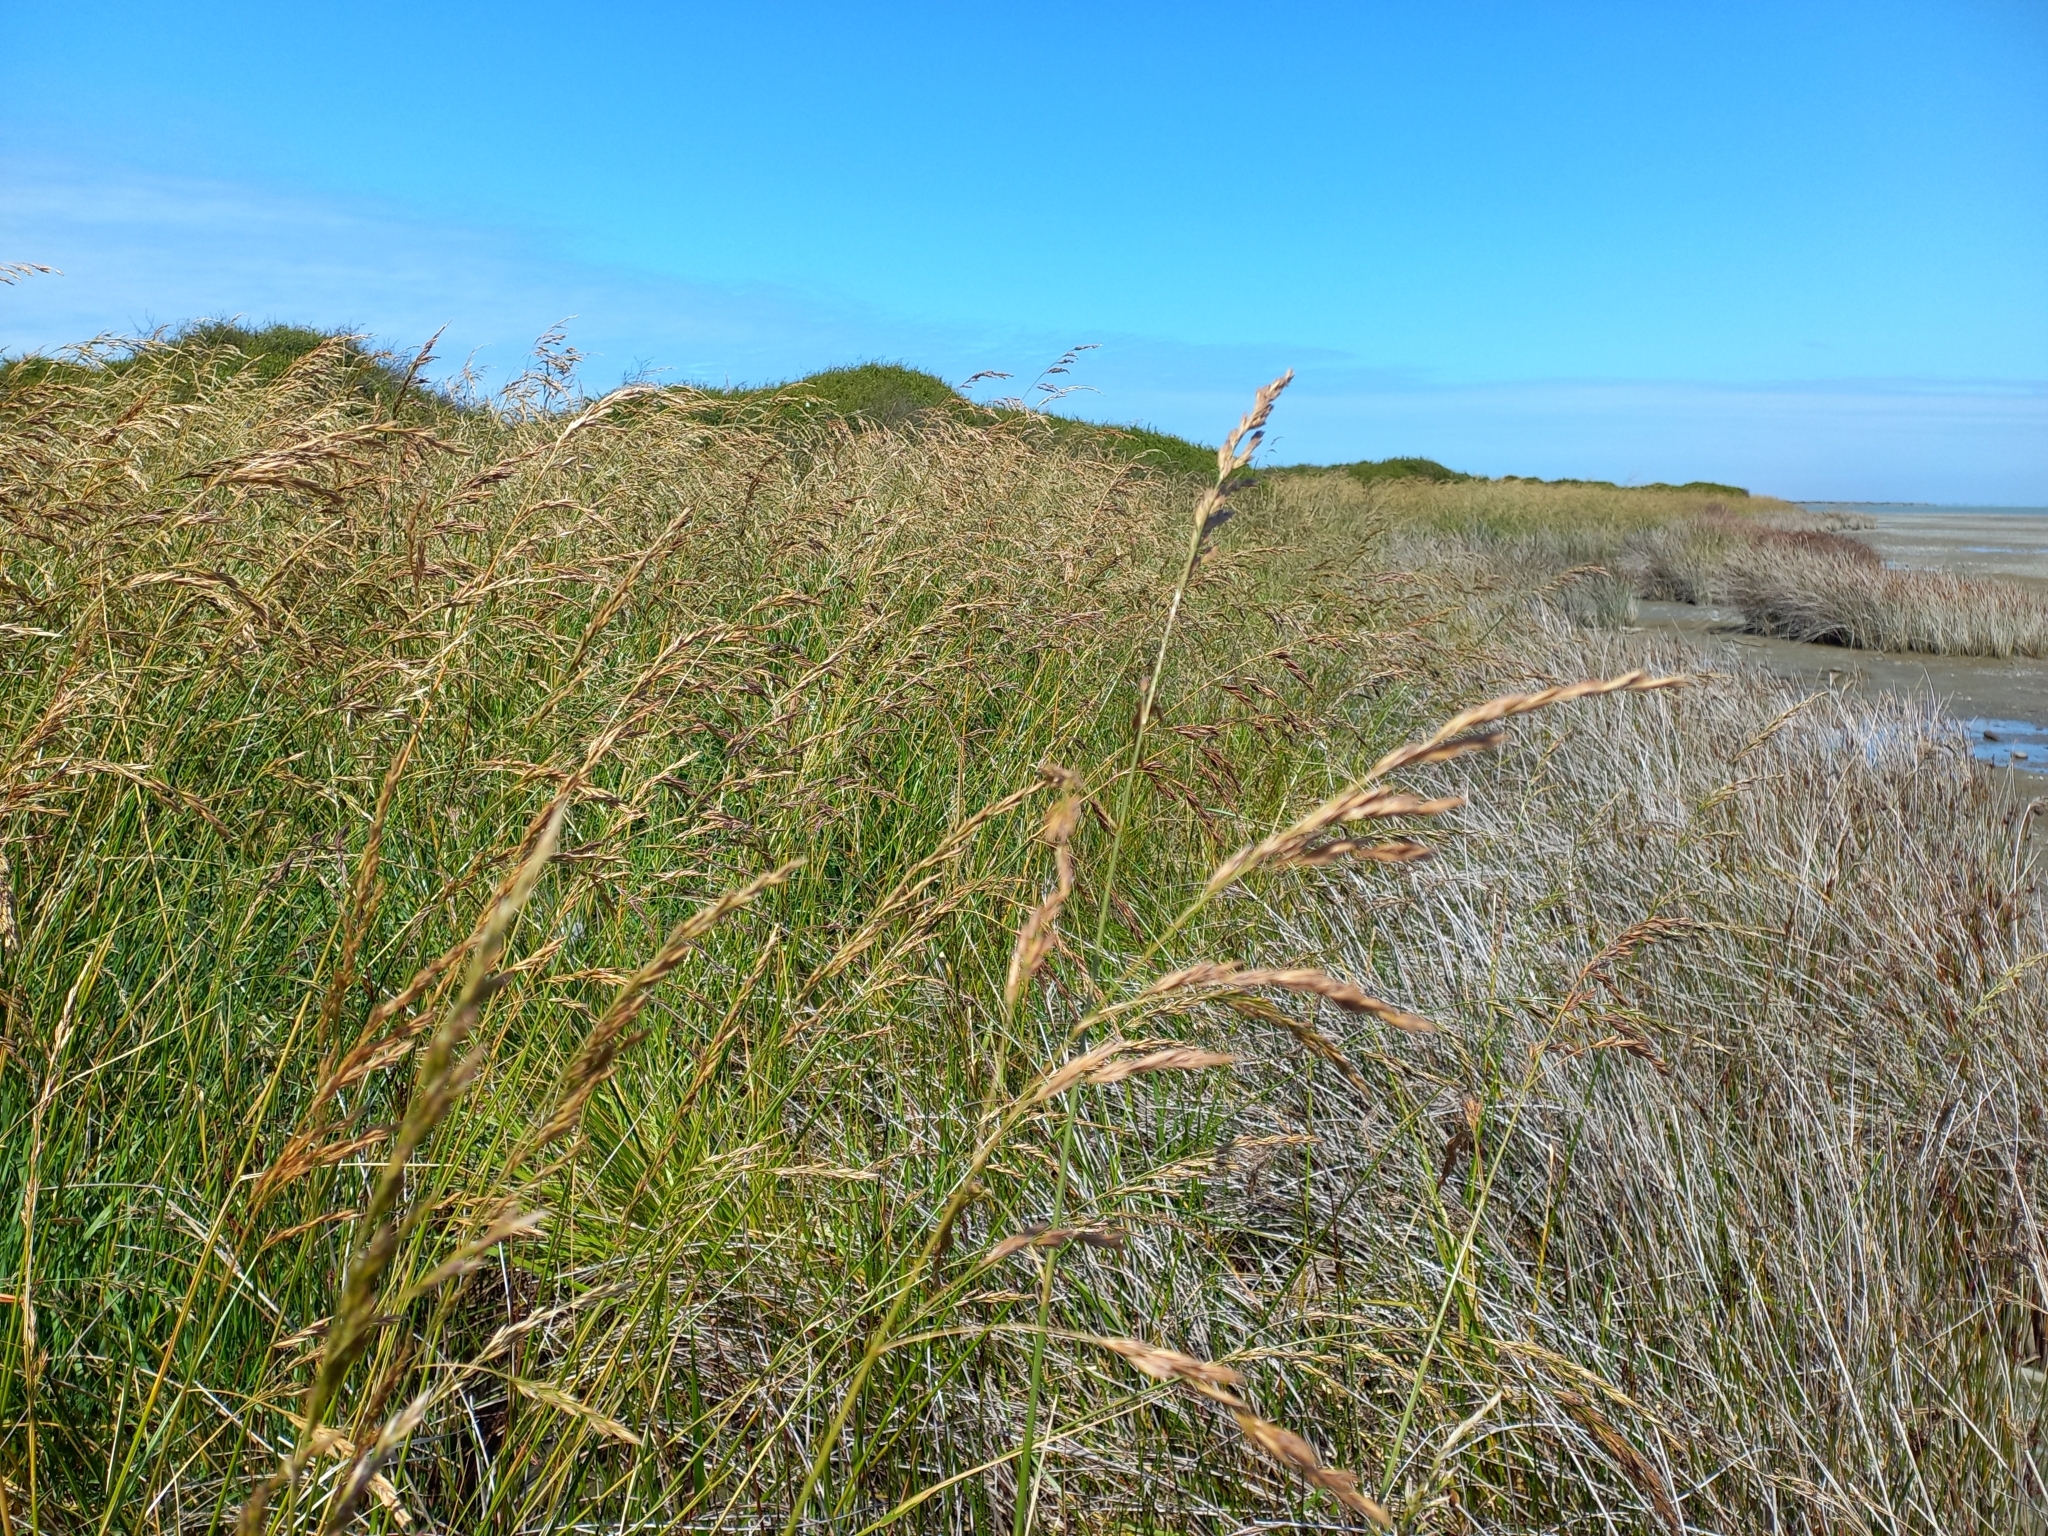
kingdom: Plantae
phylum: Tracheophyta
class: Liliopsida
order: Poales
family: Poaceae
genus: Lolium
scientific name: Lolium arundinaceum
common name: Reed fescue
